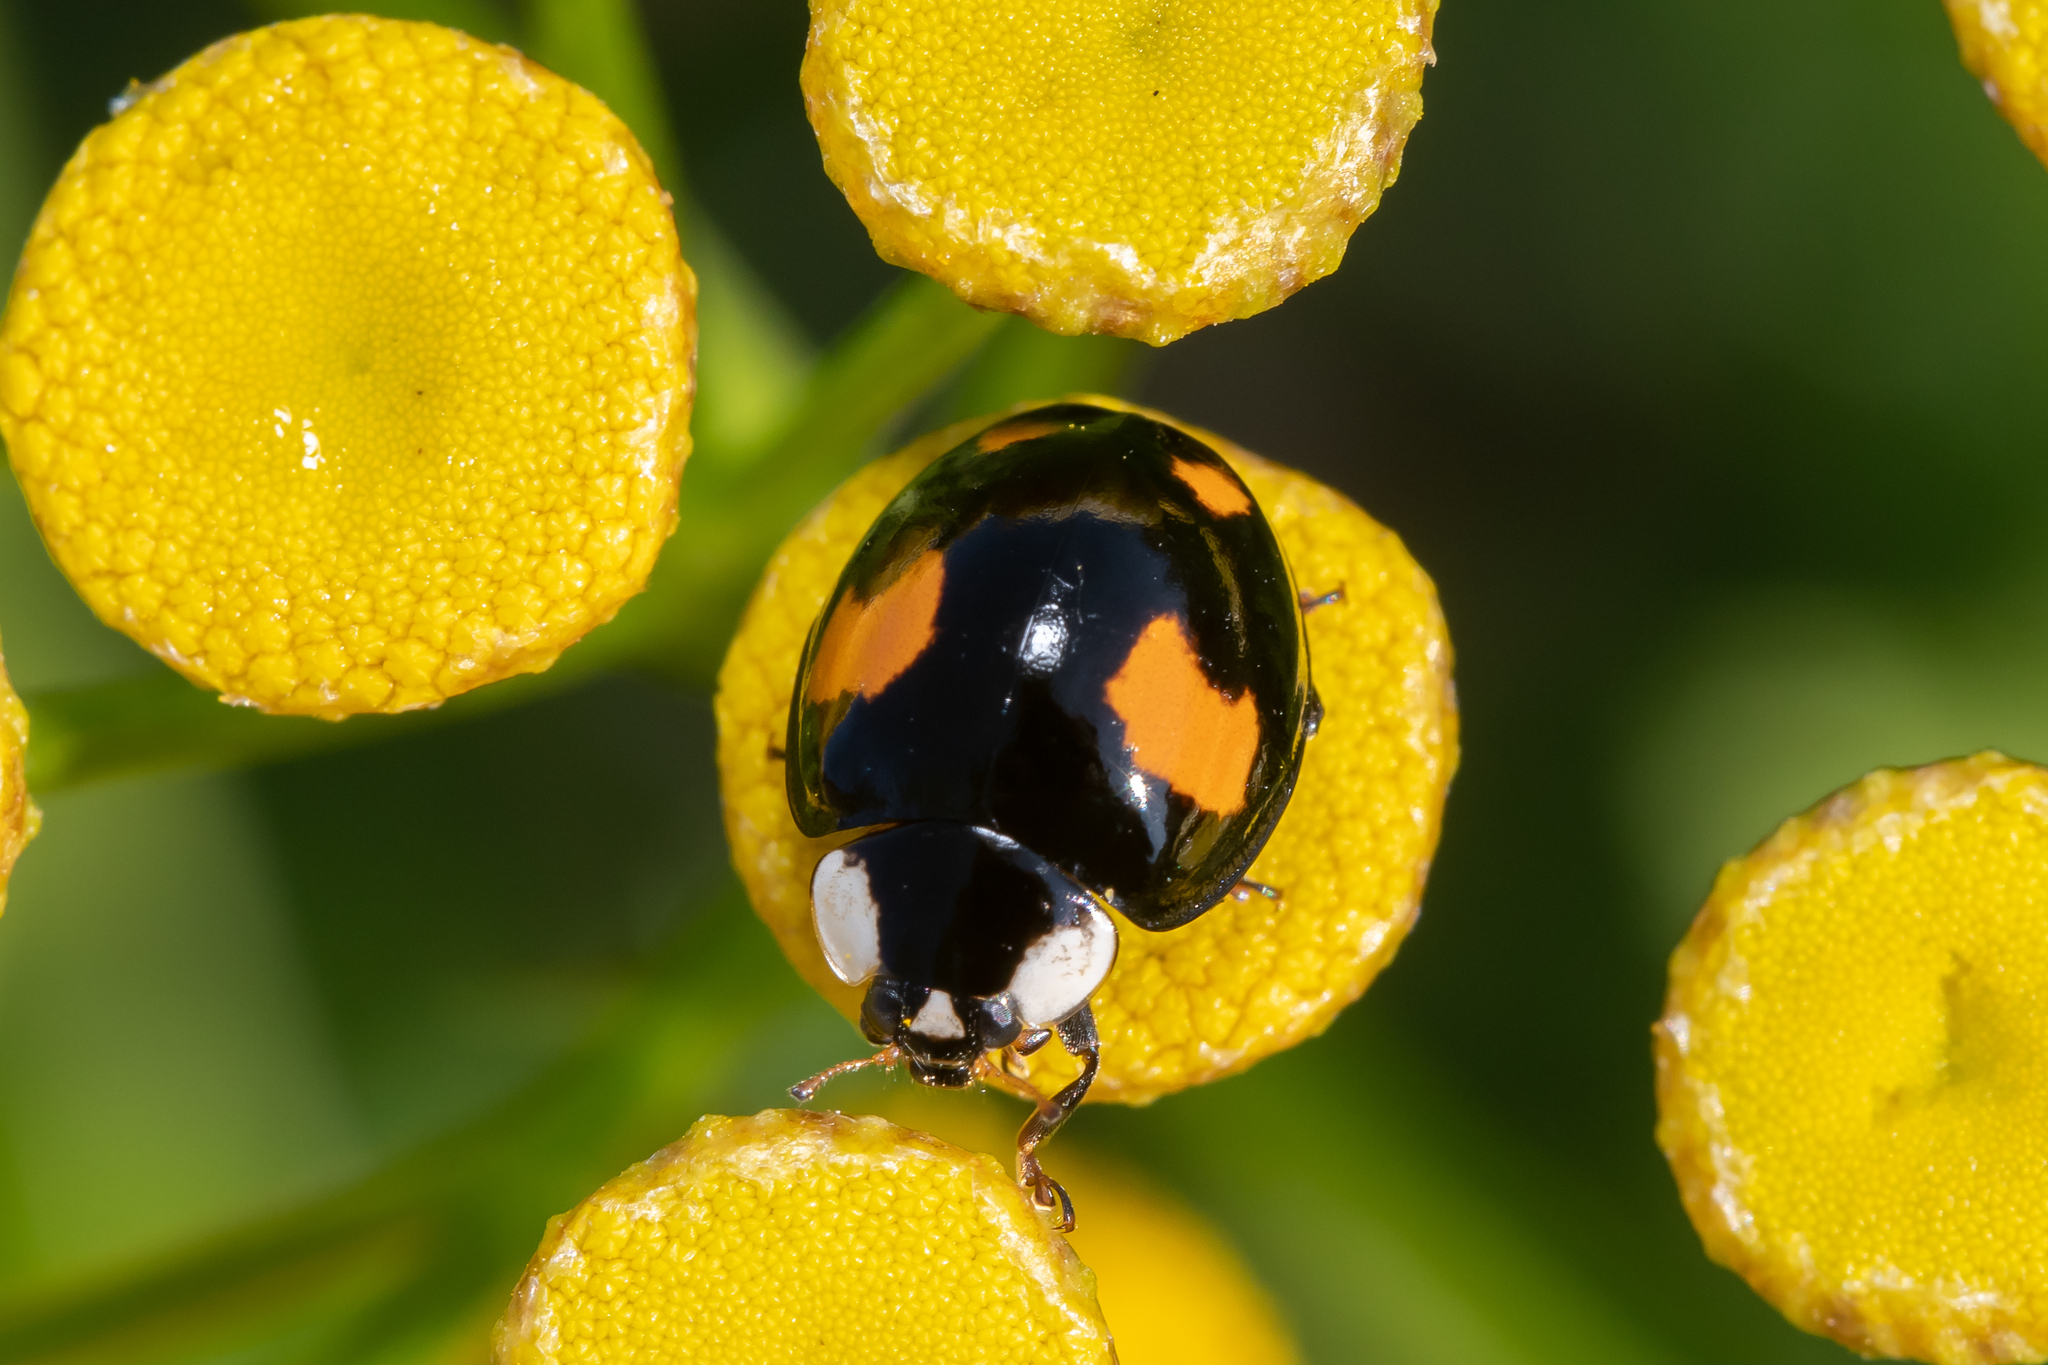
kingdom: Animalia
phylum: Arthropoda
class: Insecta
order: Coleoptera
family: Coccinellidae
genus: Harmonia
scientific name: Harmonia axyridis
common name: Harlequin ladybird
